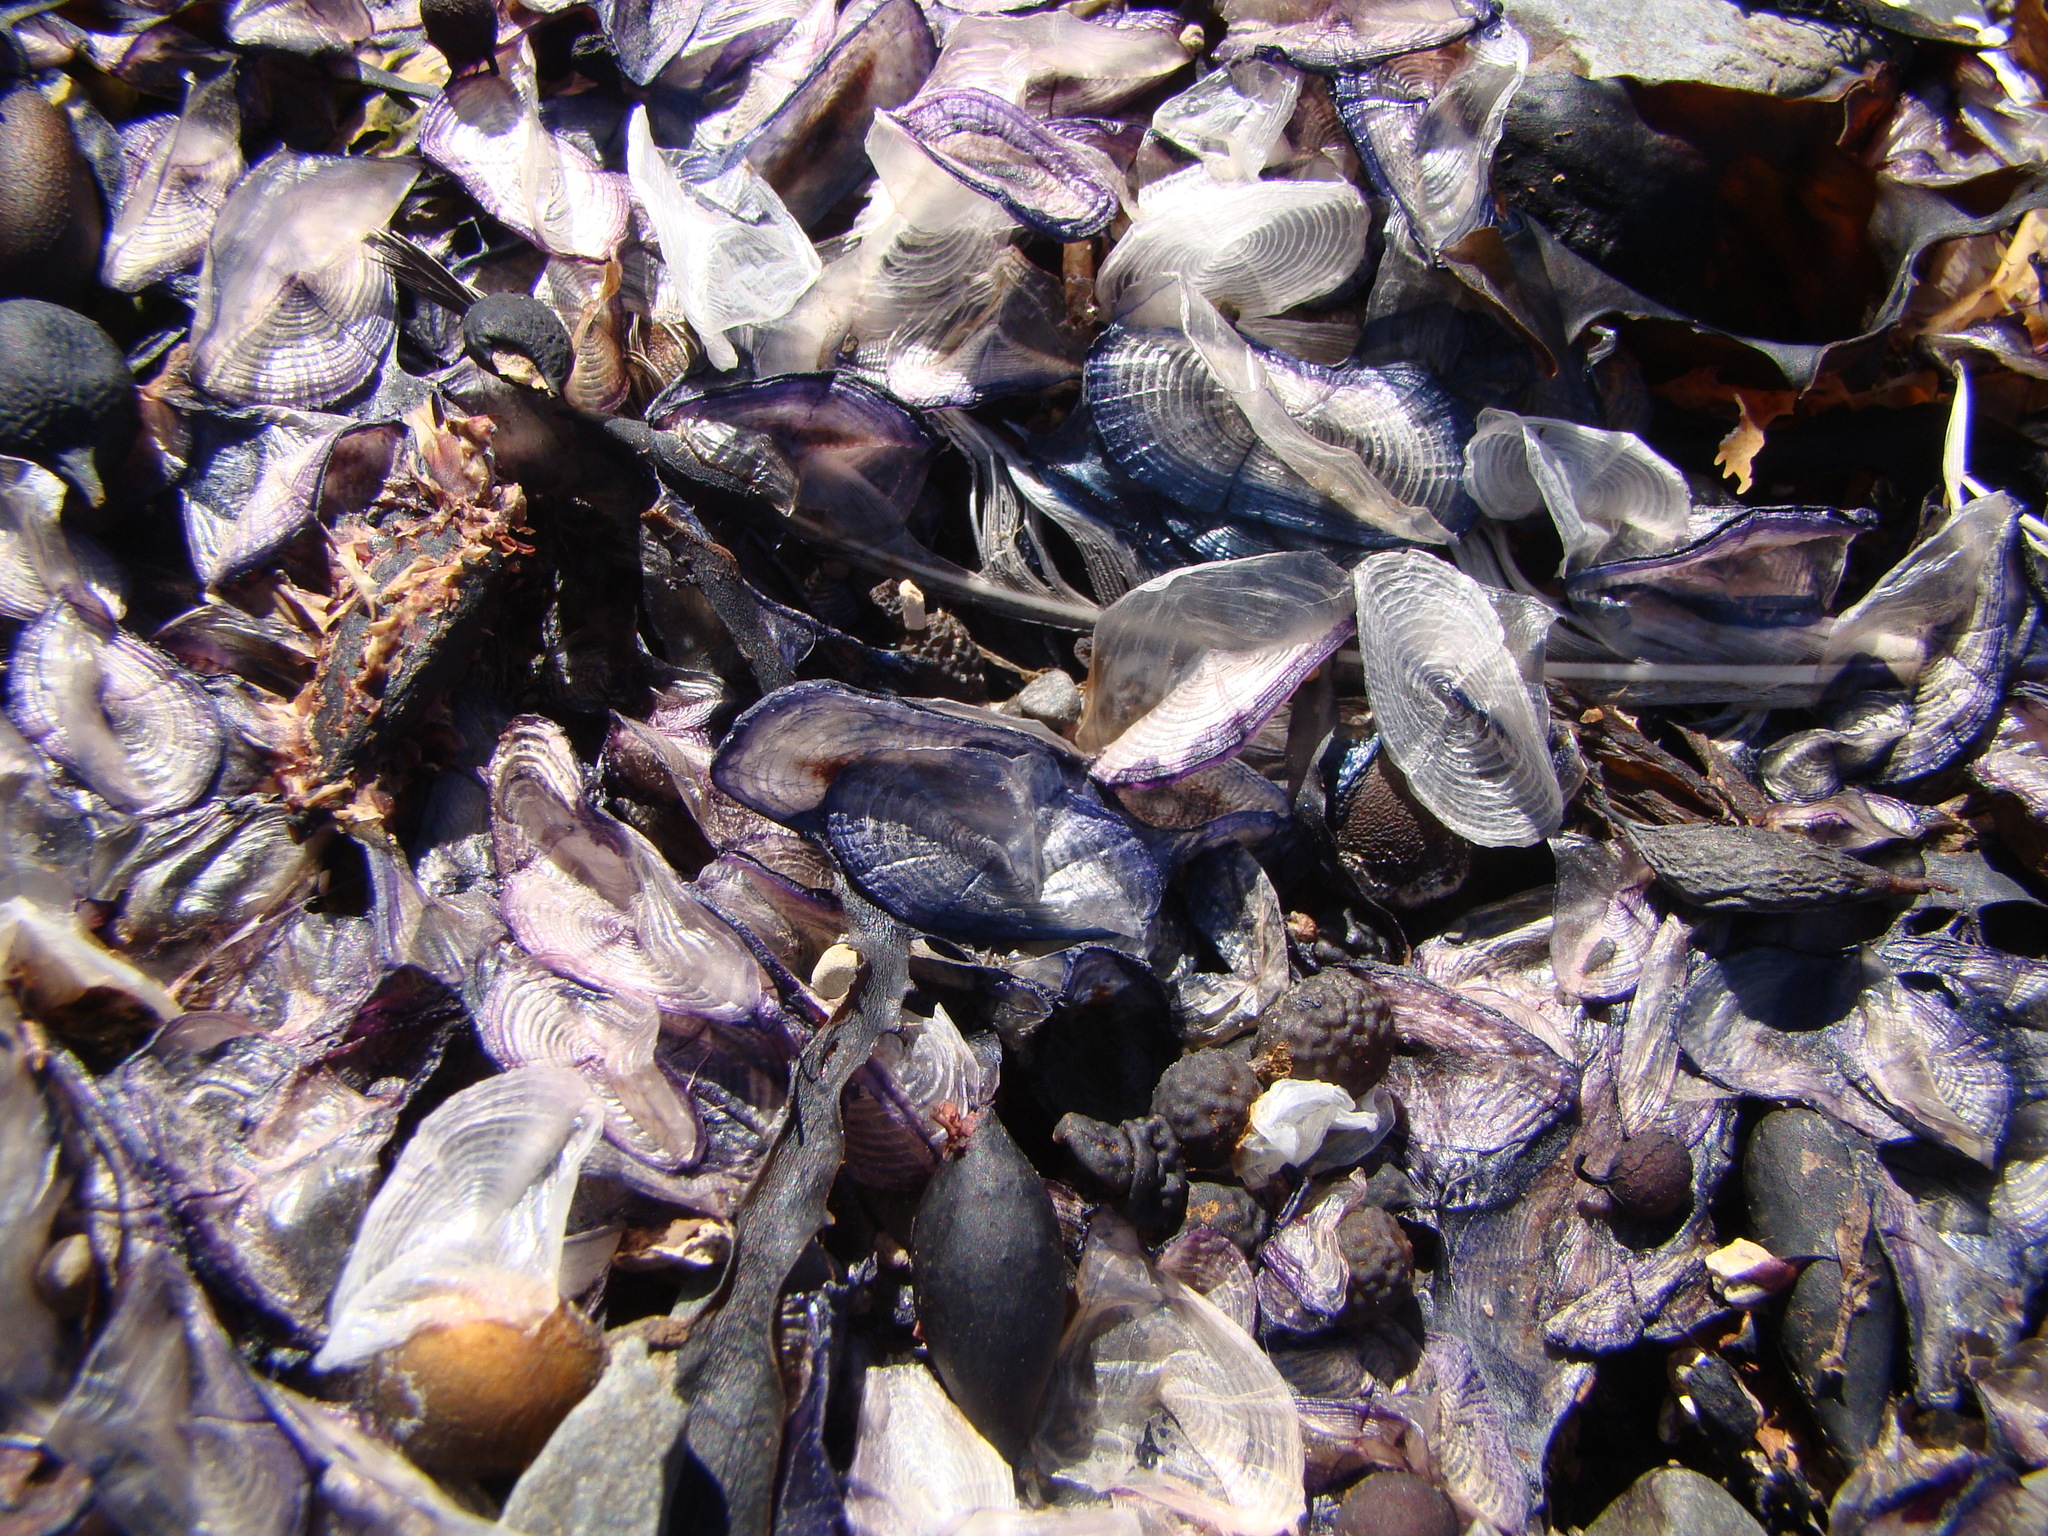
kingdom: Animalia
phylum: Cnidaria
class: Hydrozoa
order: Anthoathecata
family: Porpitidae
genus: Velella
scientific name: Velella velella
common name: By-the-wind-sailor
